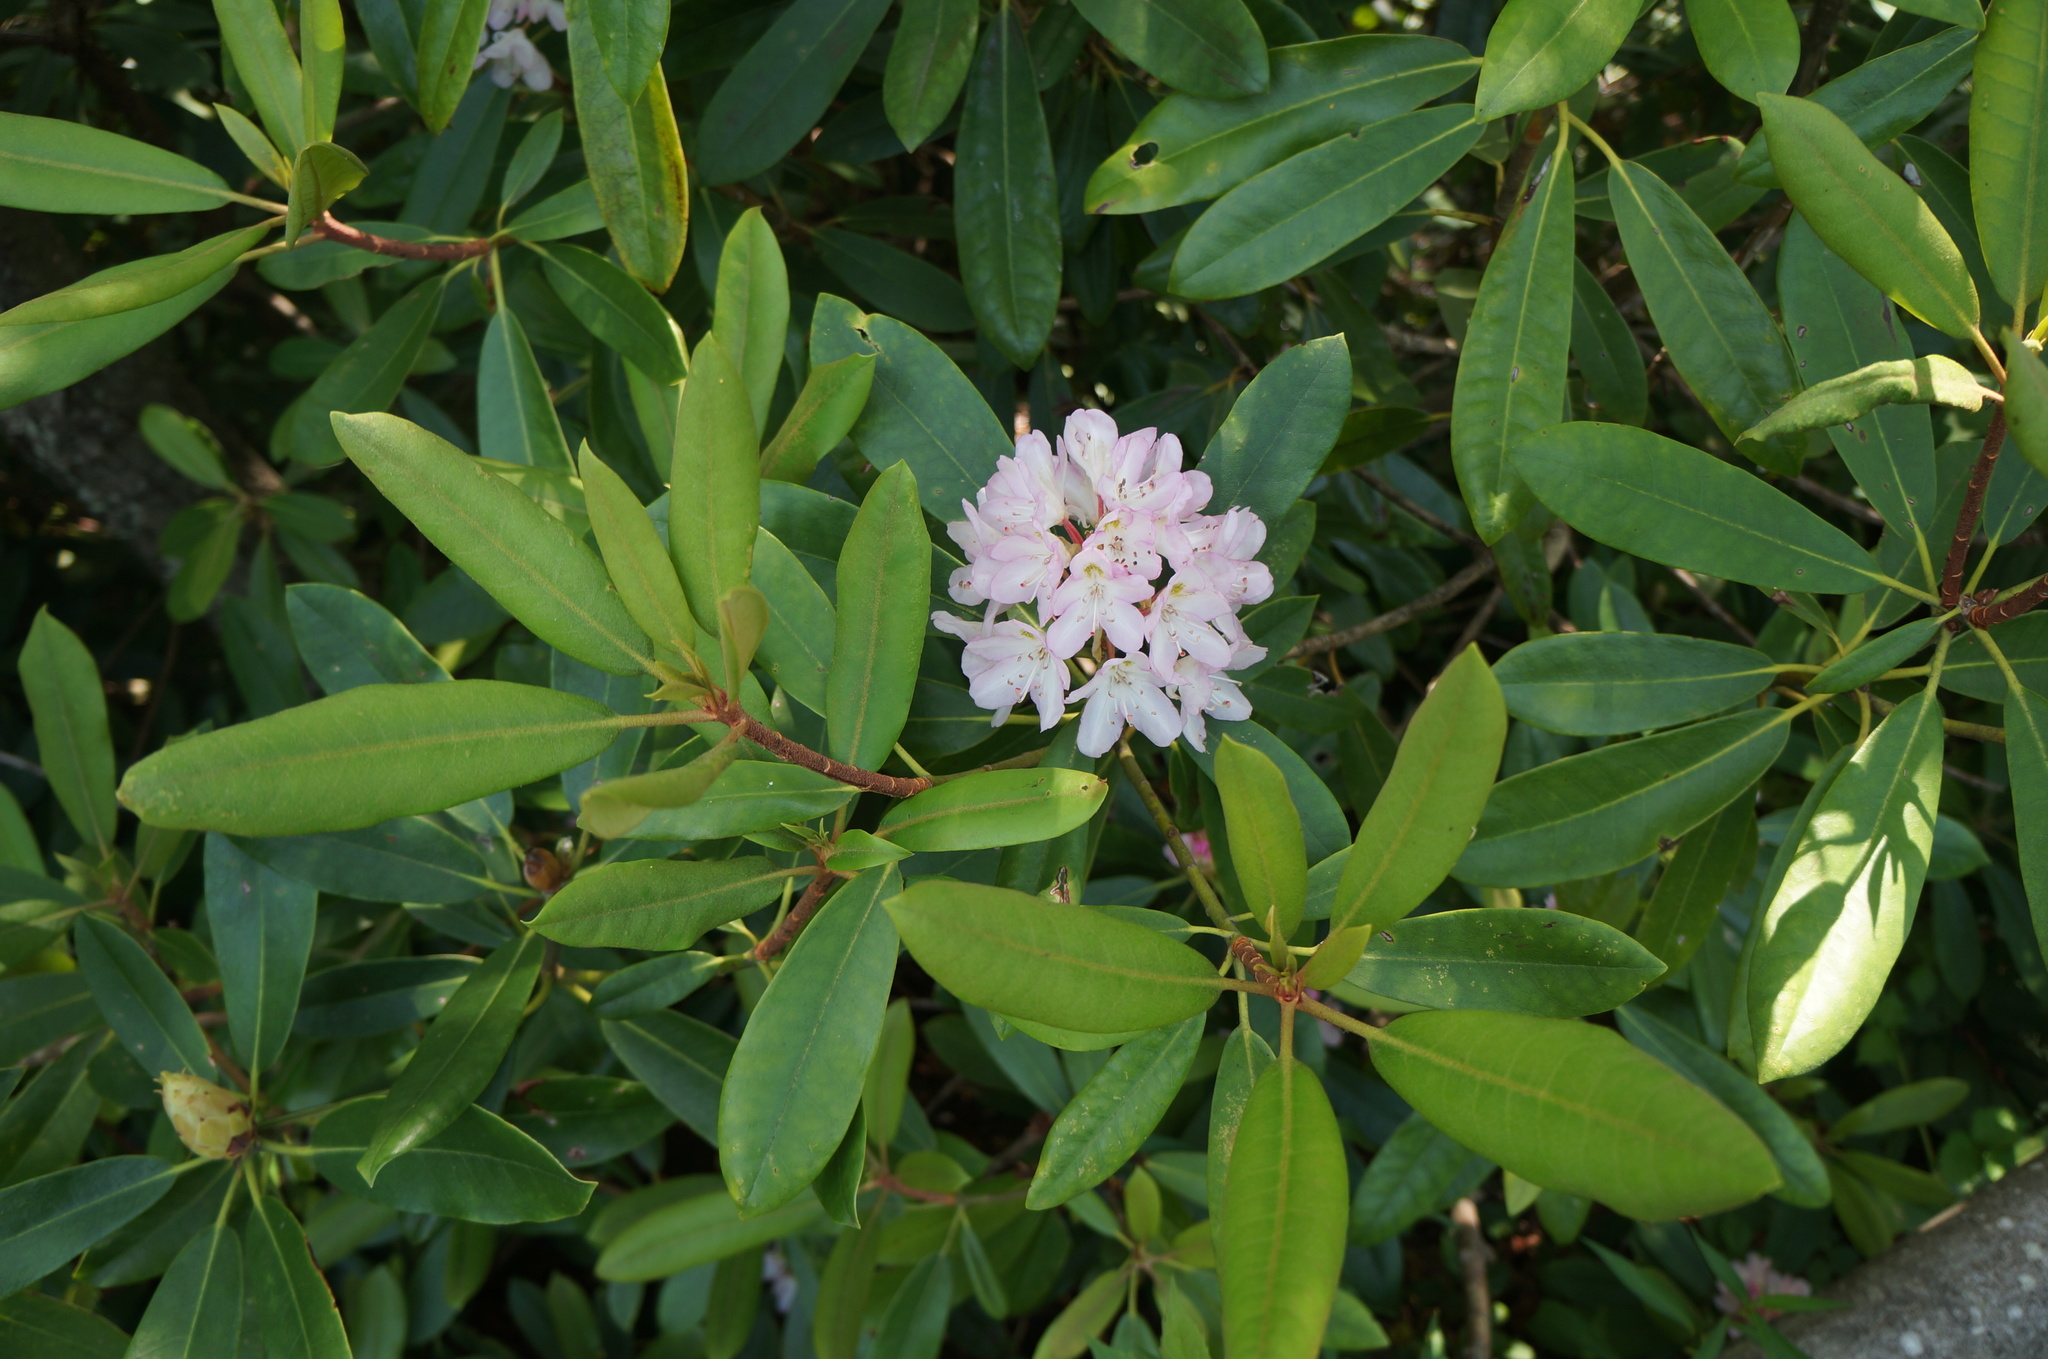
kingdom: Plantae
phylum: Tracheophyta
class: Magnoliopsida
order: Ericales
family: Ericaceae
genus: Rhododendron
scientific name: Rhododendron maximum
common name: Great rhododendron
